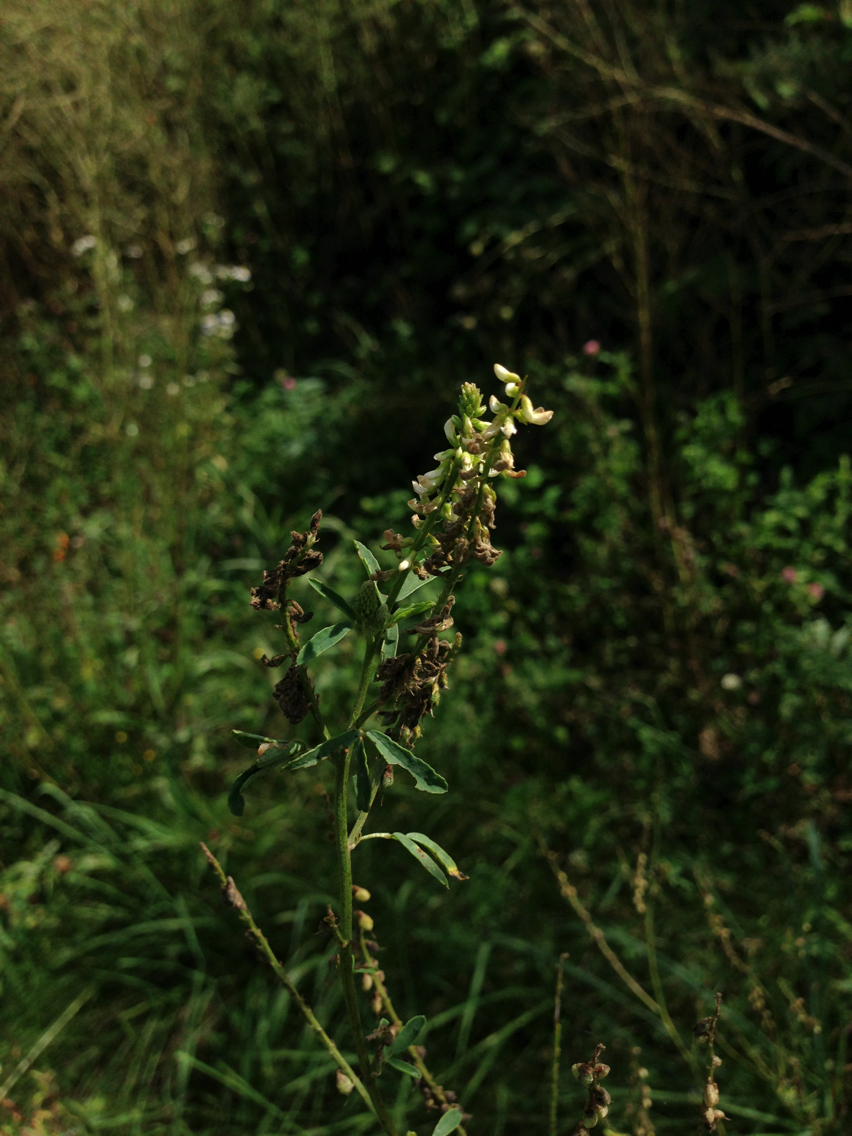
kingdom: Plantae
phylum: Tracheophyta
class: Magnoliopsida
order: Fabales
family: Fabaceae
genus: Melilotus
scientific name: Melilotus albus
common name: White melilot
